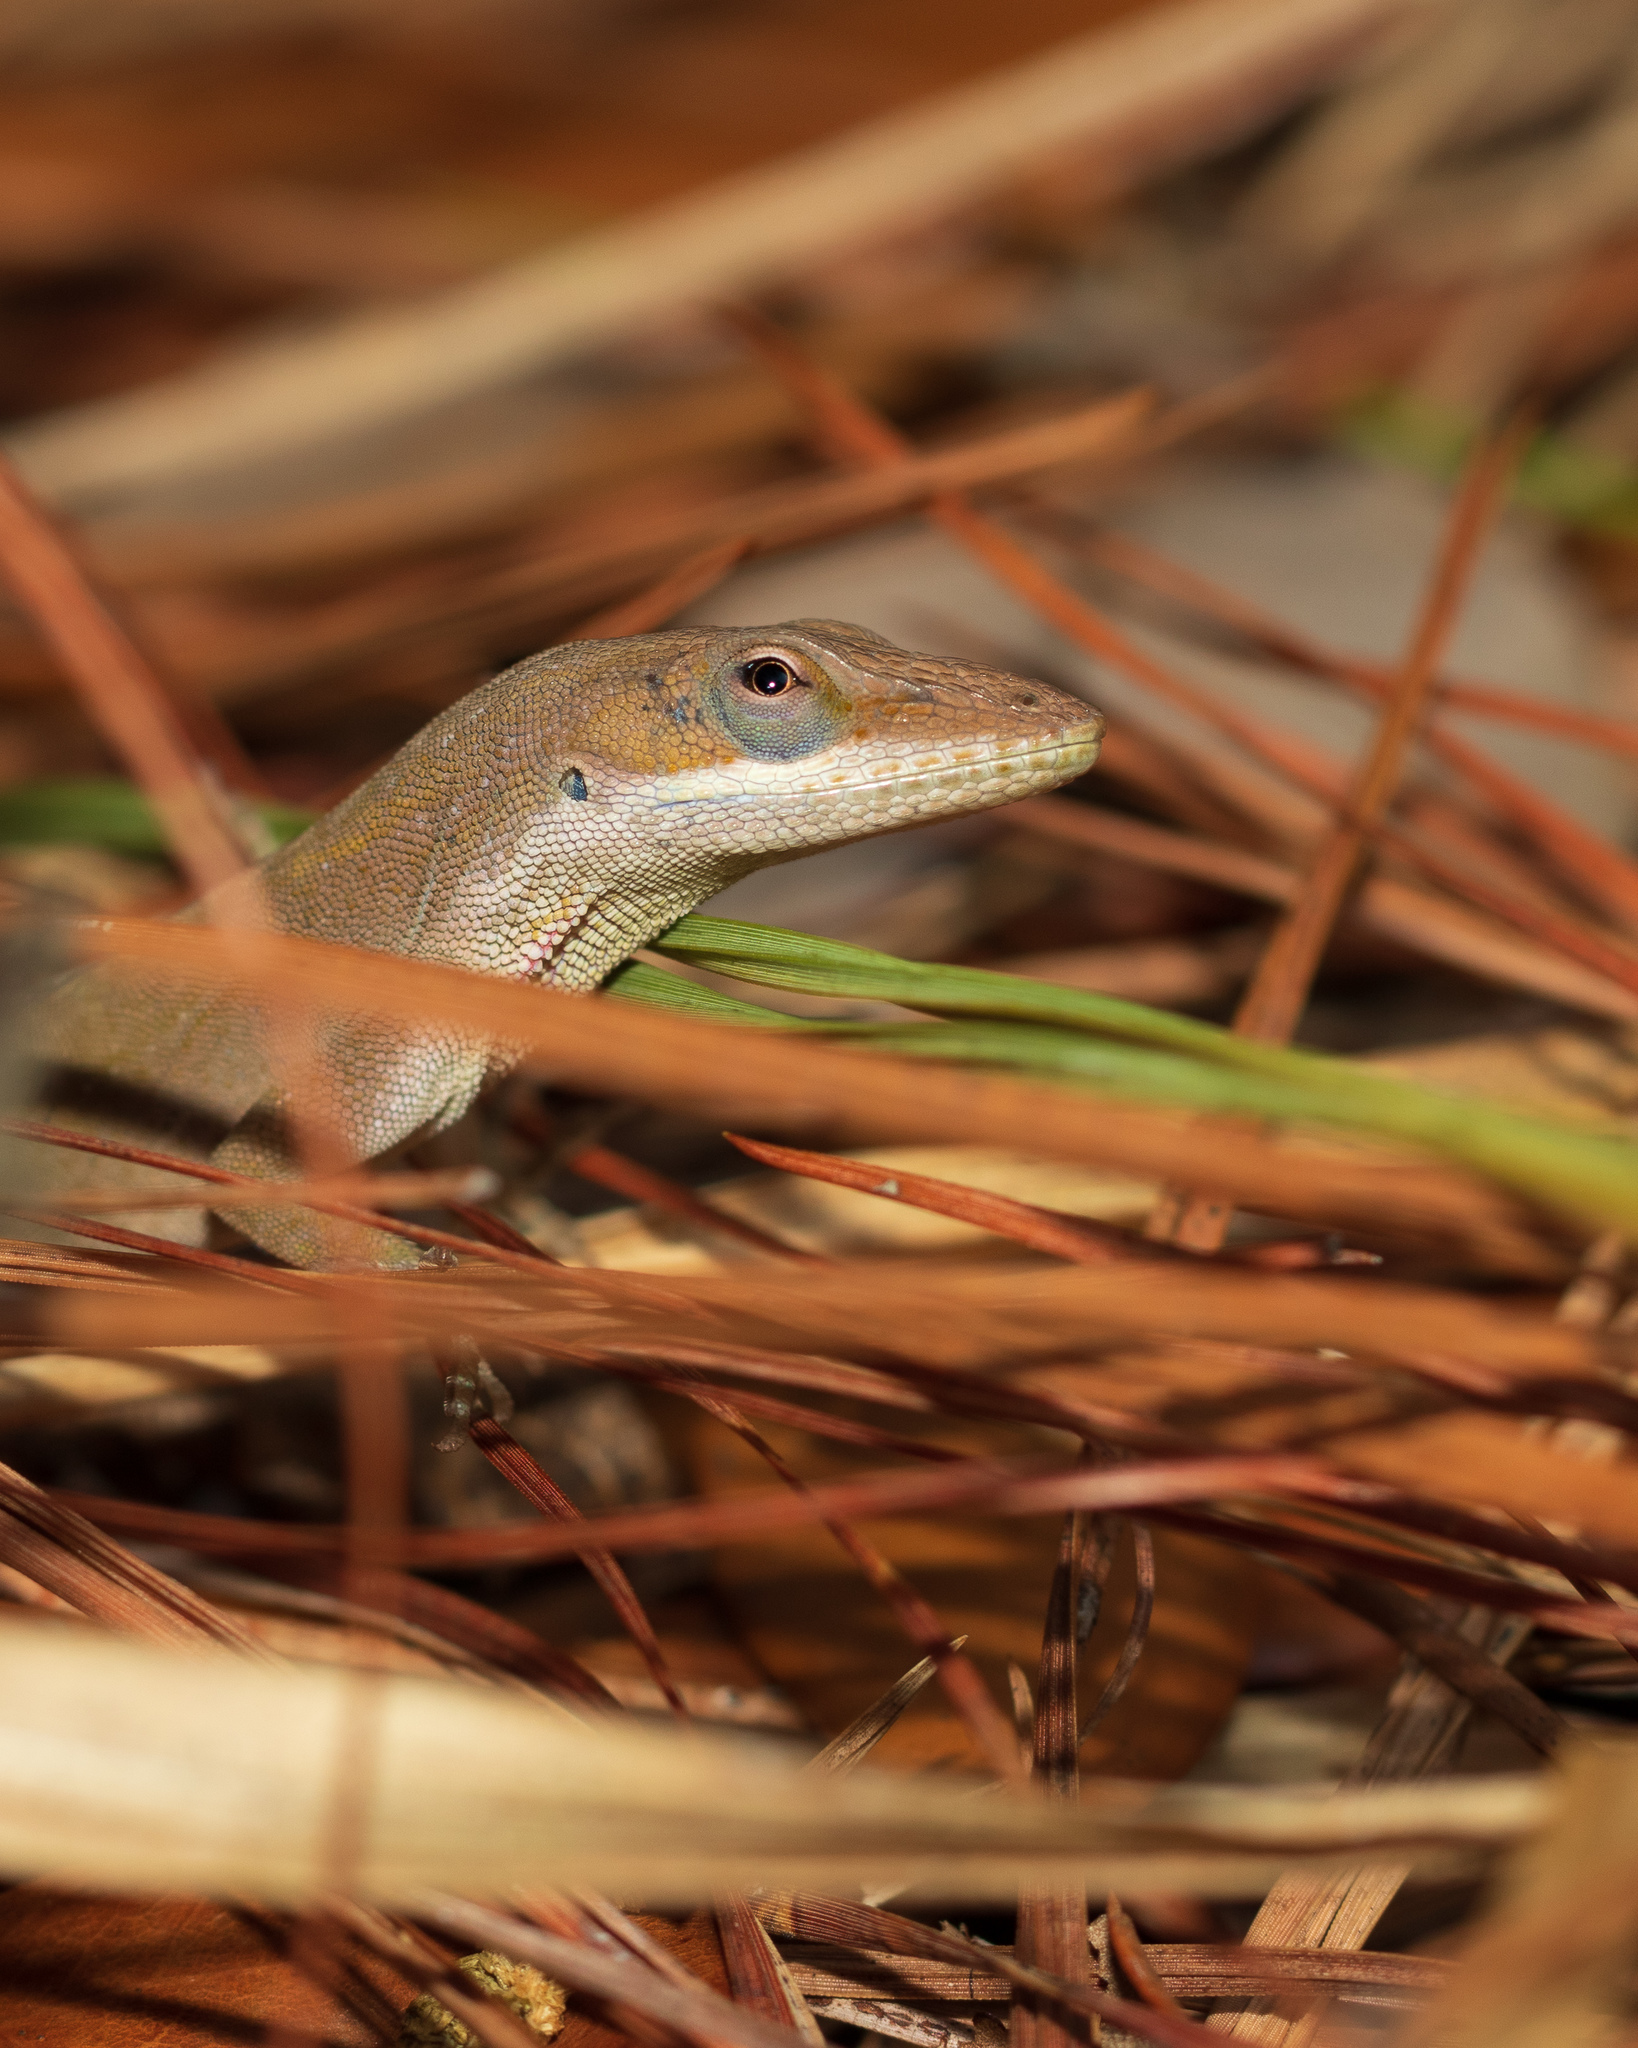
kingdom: Animalia
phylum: Chordata
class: Squamata
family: Dactyloidae
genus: Anolis
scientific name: Anolis carolinensis
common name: Green anole
